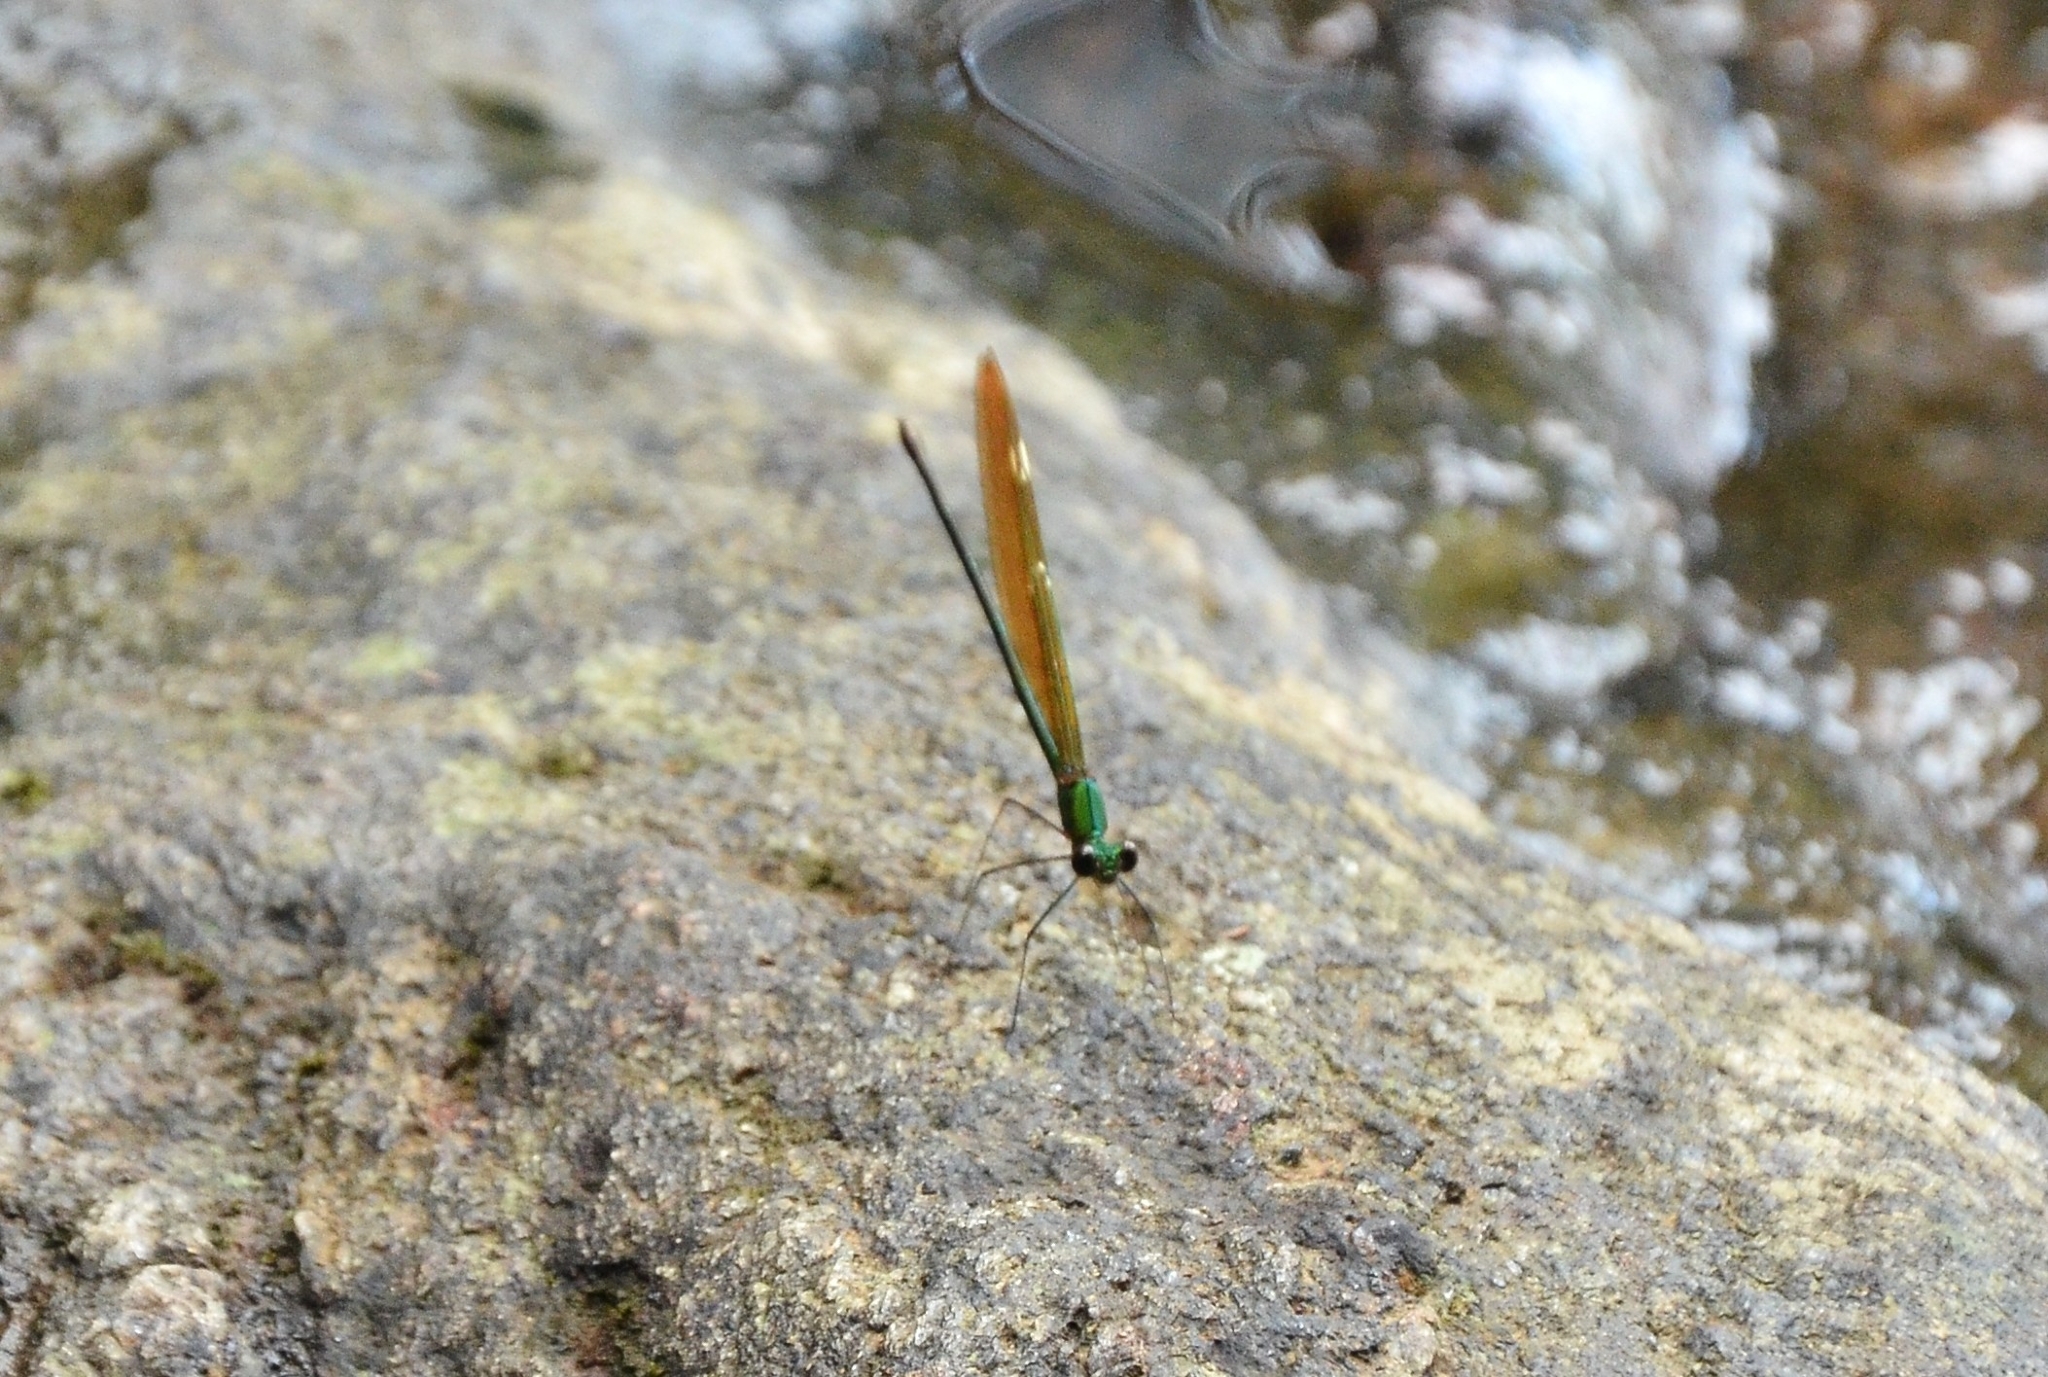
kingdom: Animalia
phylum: Arthropoda
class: Insecta
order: Odonata
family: Calopterygidae
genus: Neurobasis
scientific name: Neurobasis chinensis
